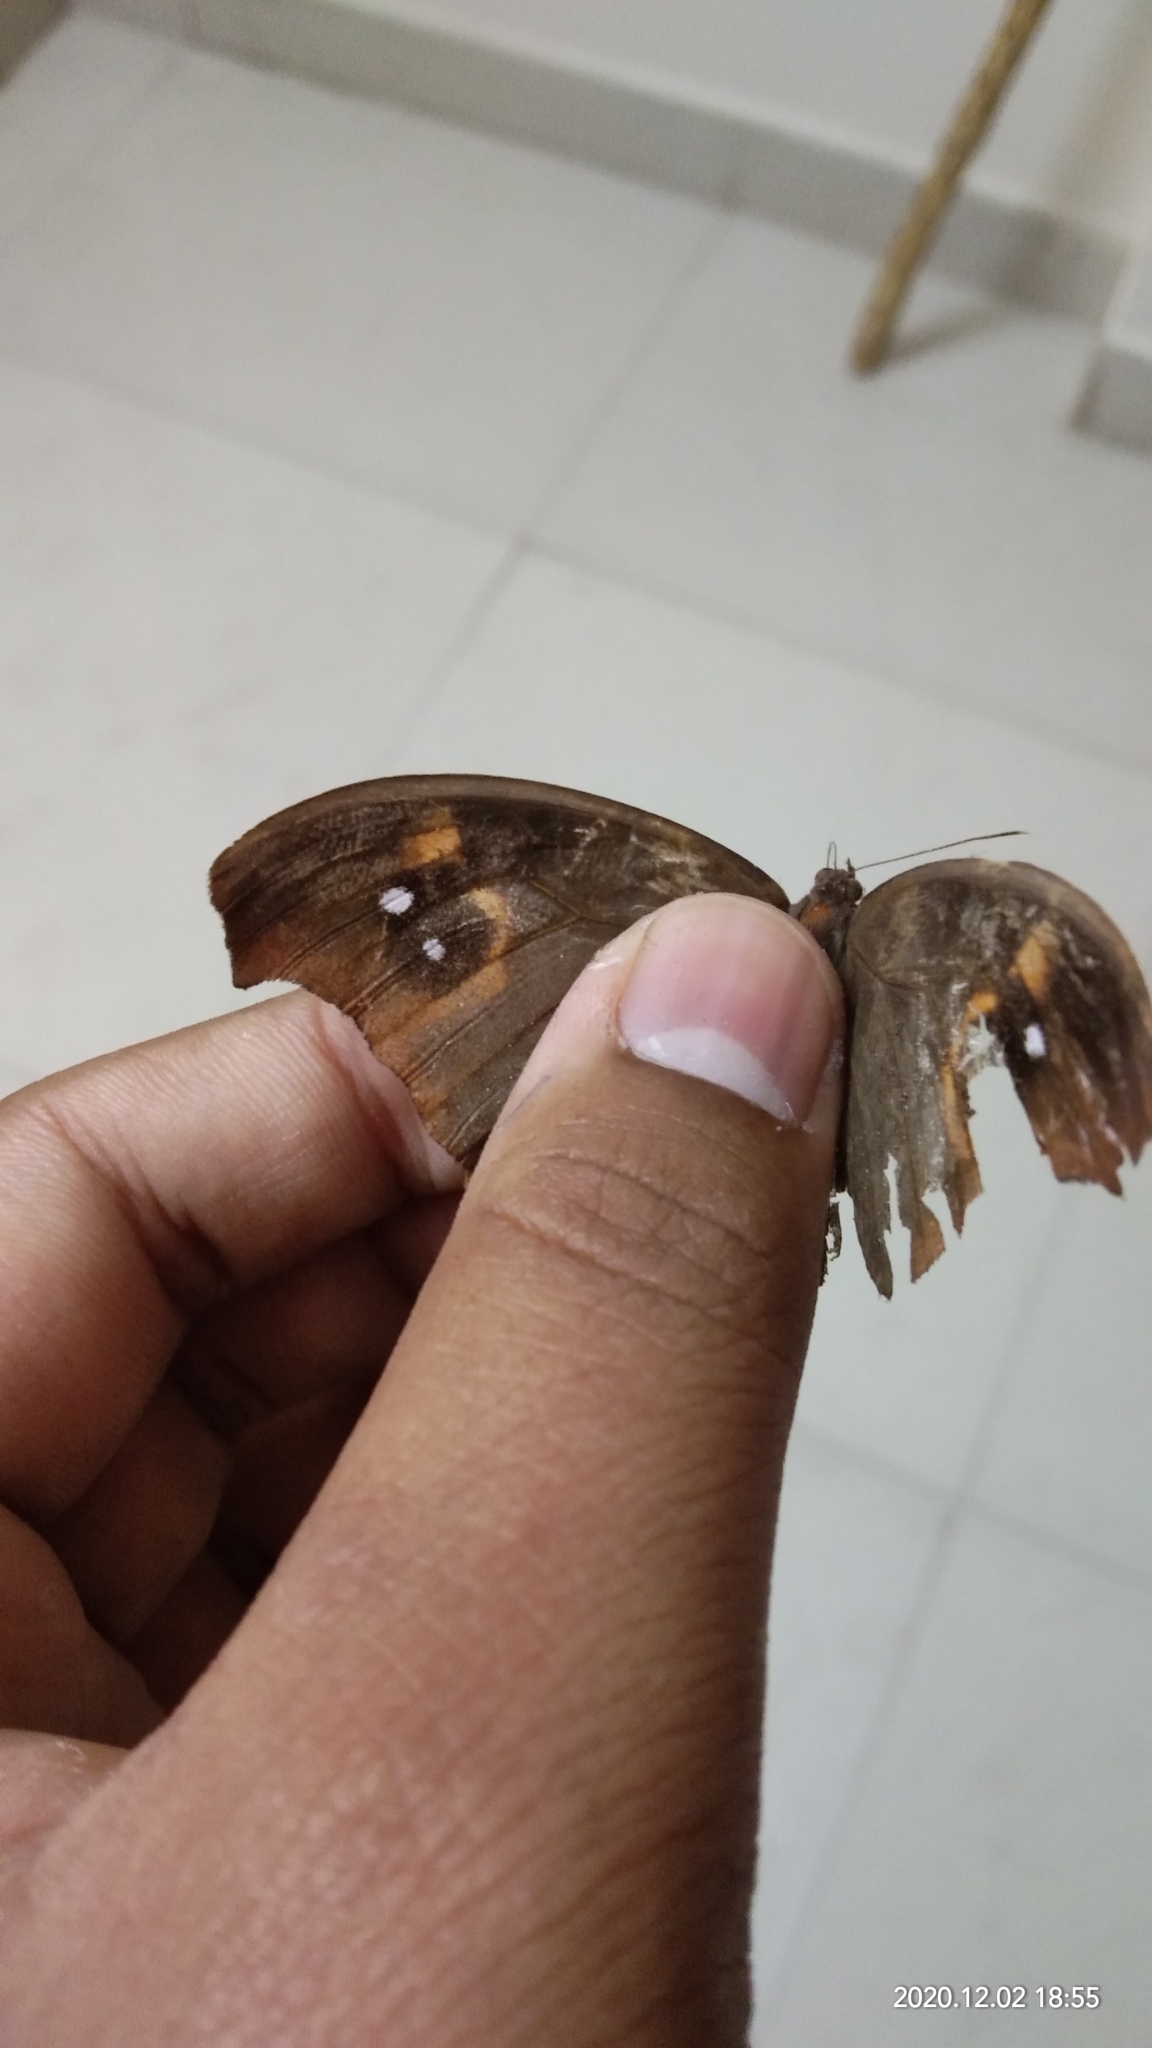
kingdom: Animalia
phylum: Arthropoda
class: Insecta
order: Lepidoptera
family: Nymphalidae
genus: Melanitis
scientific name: Melanitis leda
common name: Twilight brown
